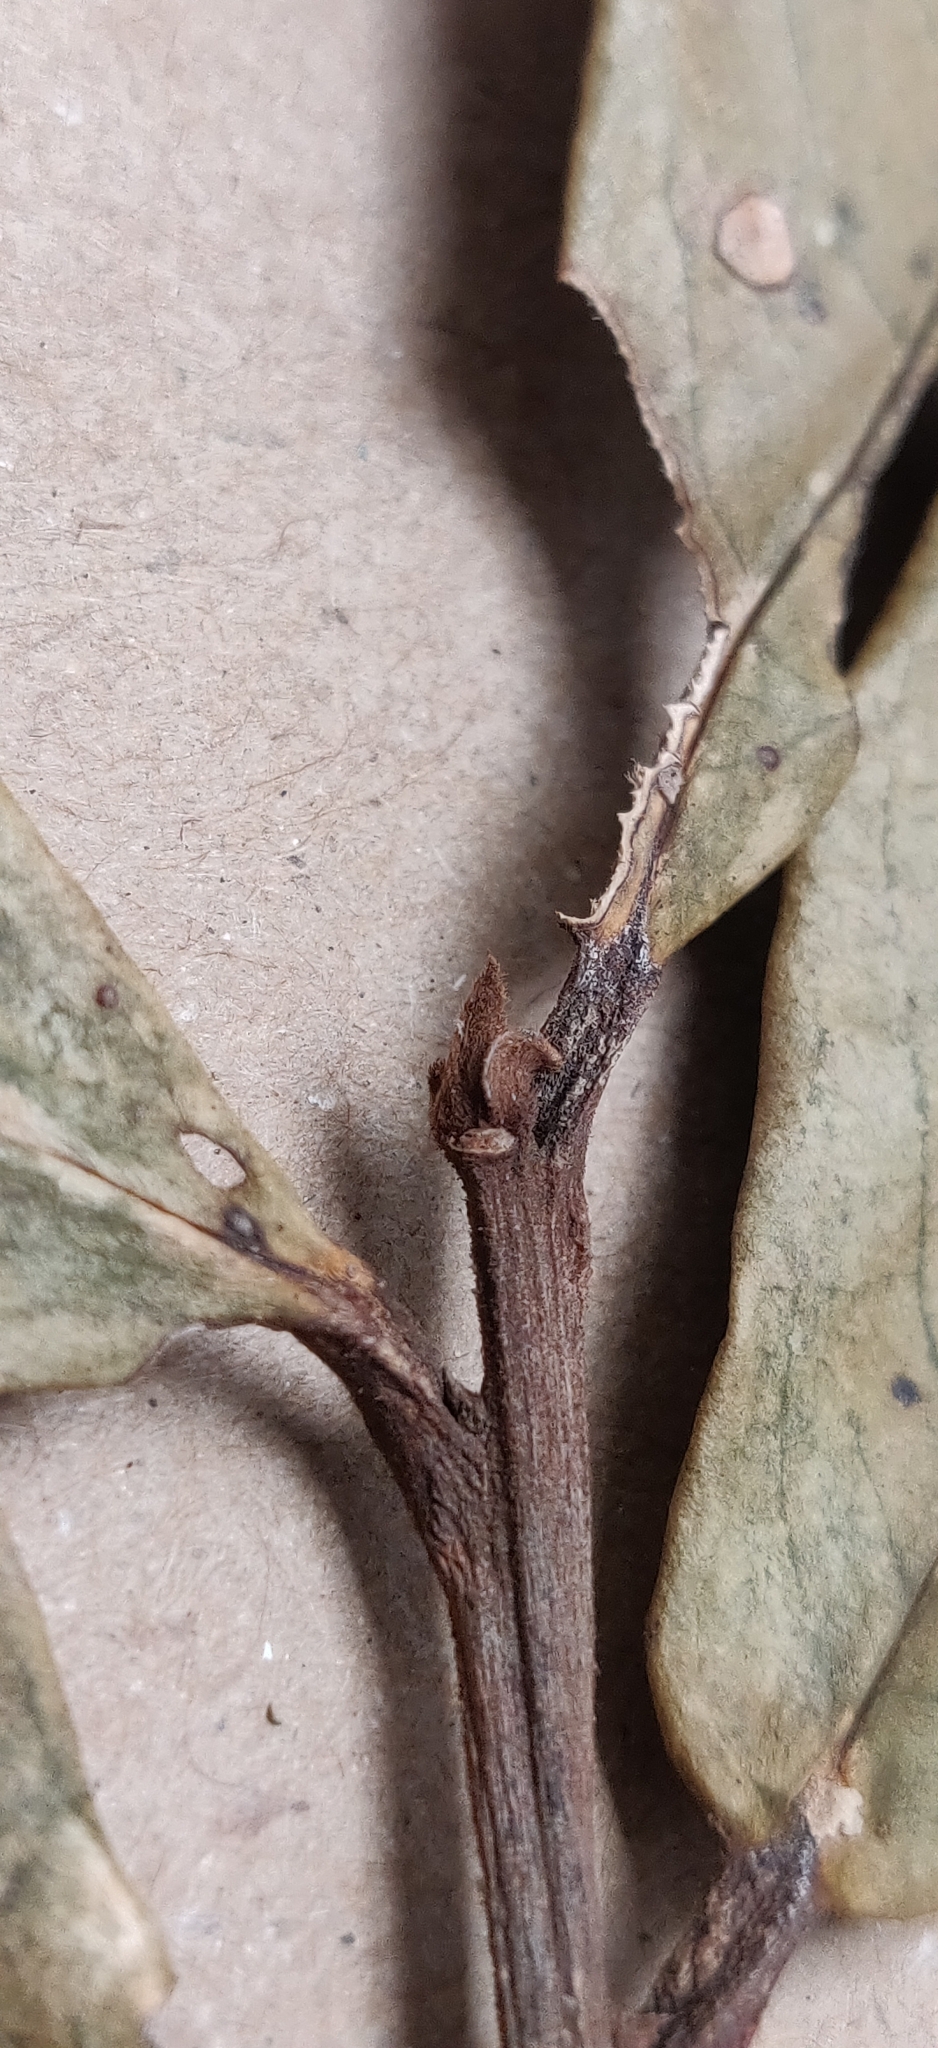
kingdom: Plantae
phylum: Tracheophyta
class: Magnoliopsida
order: Ericales
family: Symplocaceae
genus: Symplocos
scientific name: Symplocos macrophylla
